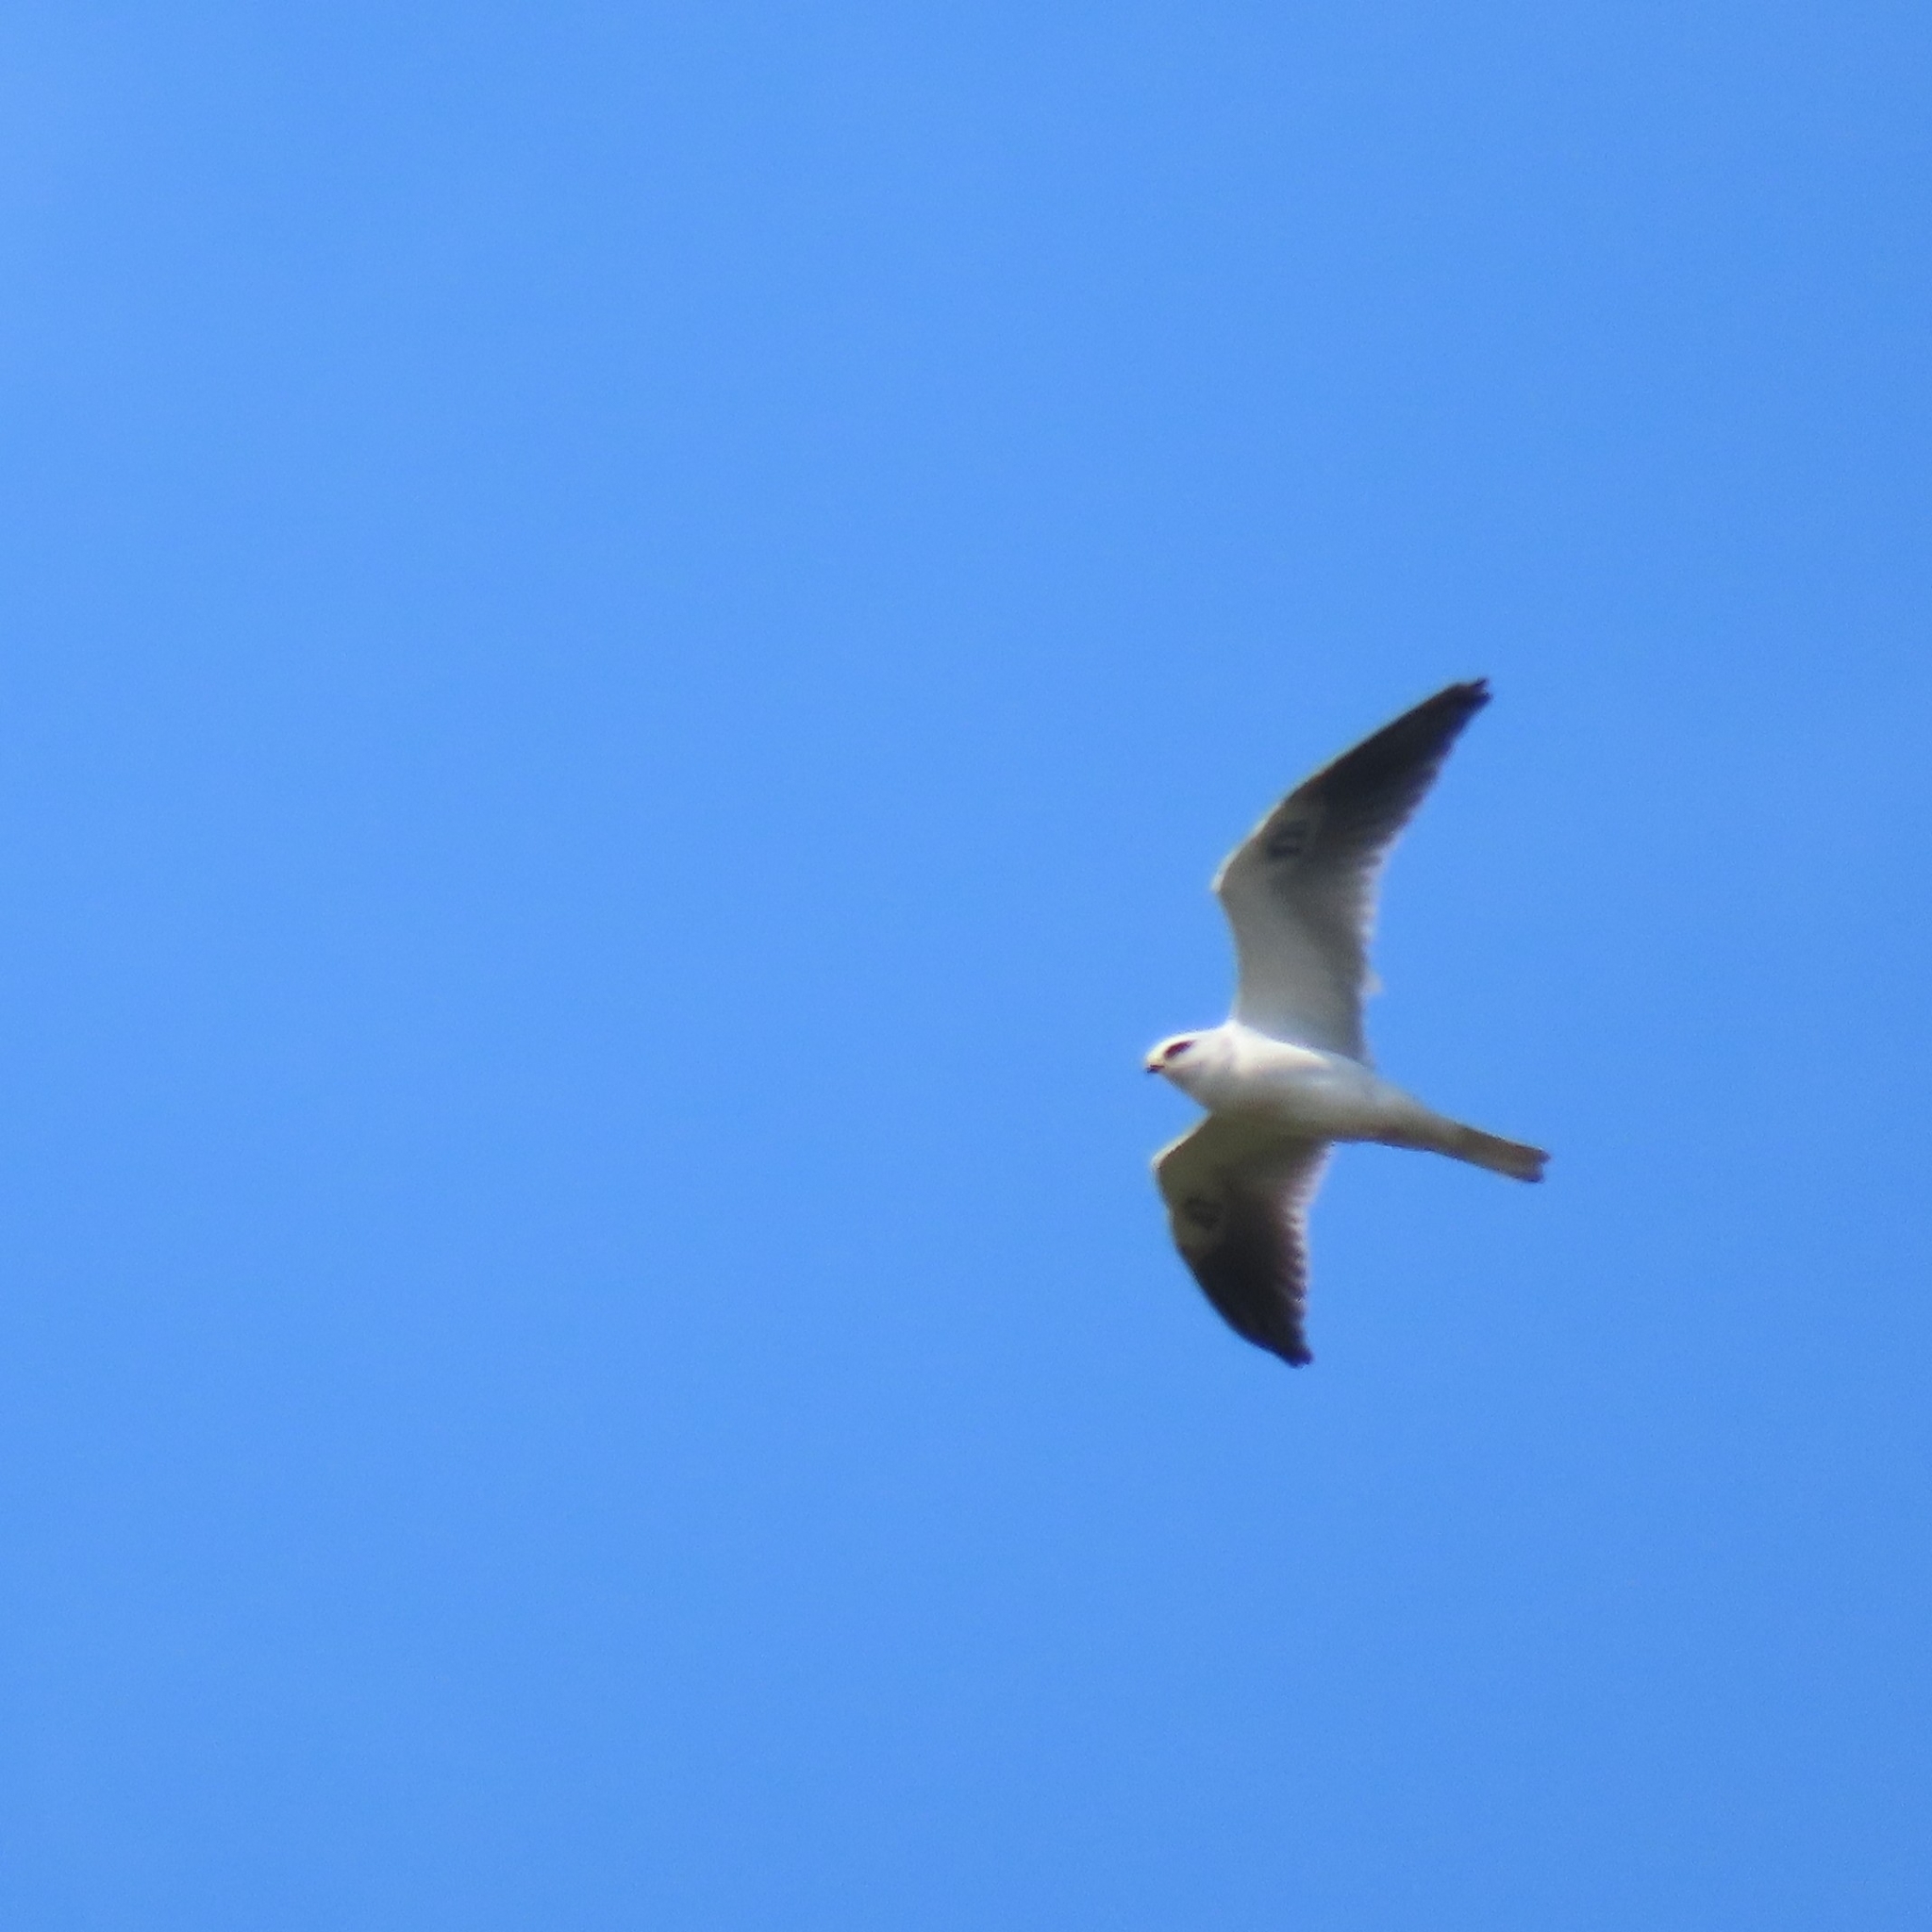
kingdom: Animalia
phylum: Chordata
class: Aves
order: Accipitriformes
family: Accipitridae
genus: Elanus
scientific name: Elanus leucurus
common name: White-tailed kite
